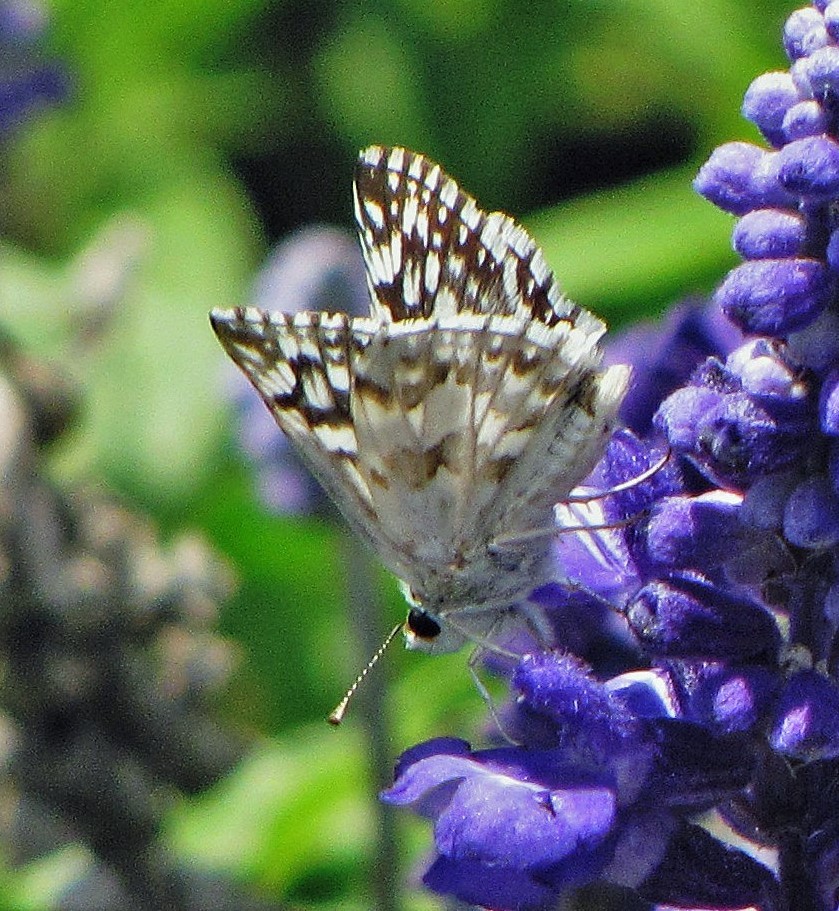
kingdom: Animalia
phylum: Arthropoda
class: Insecta
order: Lepidoptera
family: Hesperiidae
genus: Heliopetes
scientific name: Heliopetes americanus
